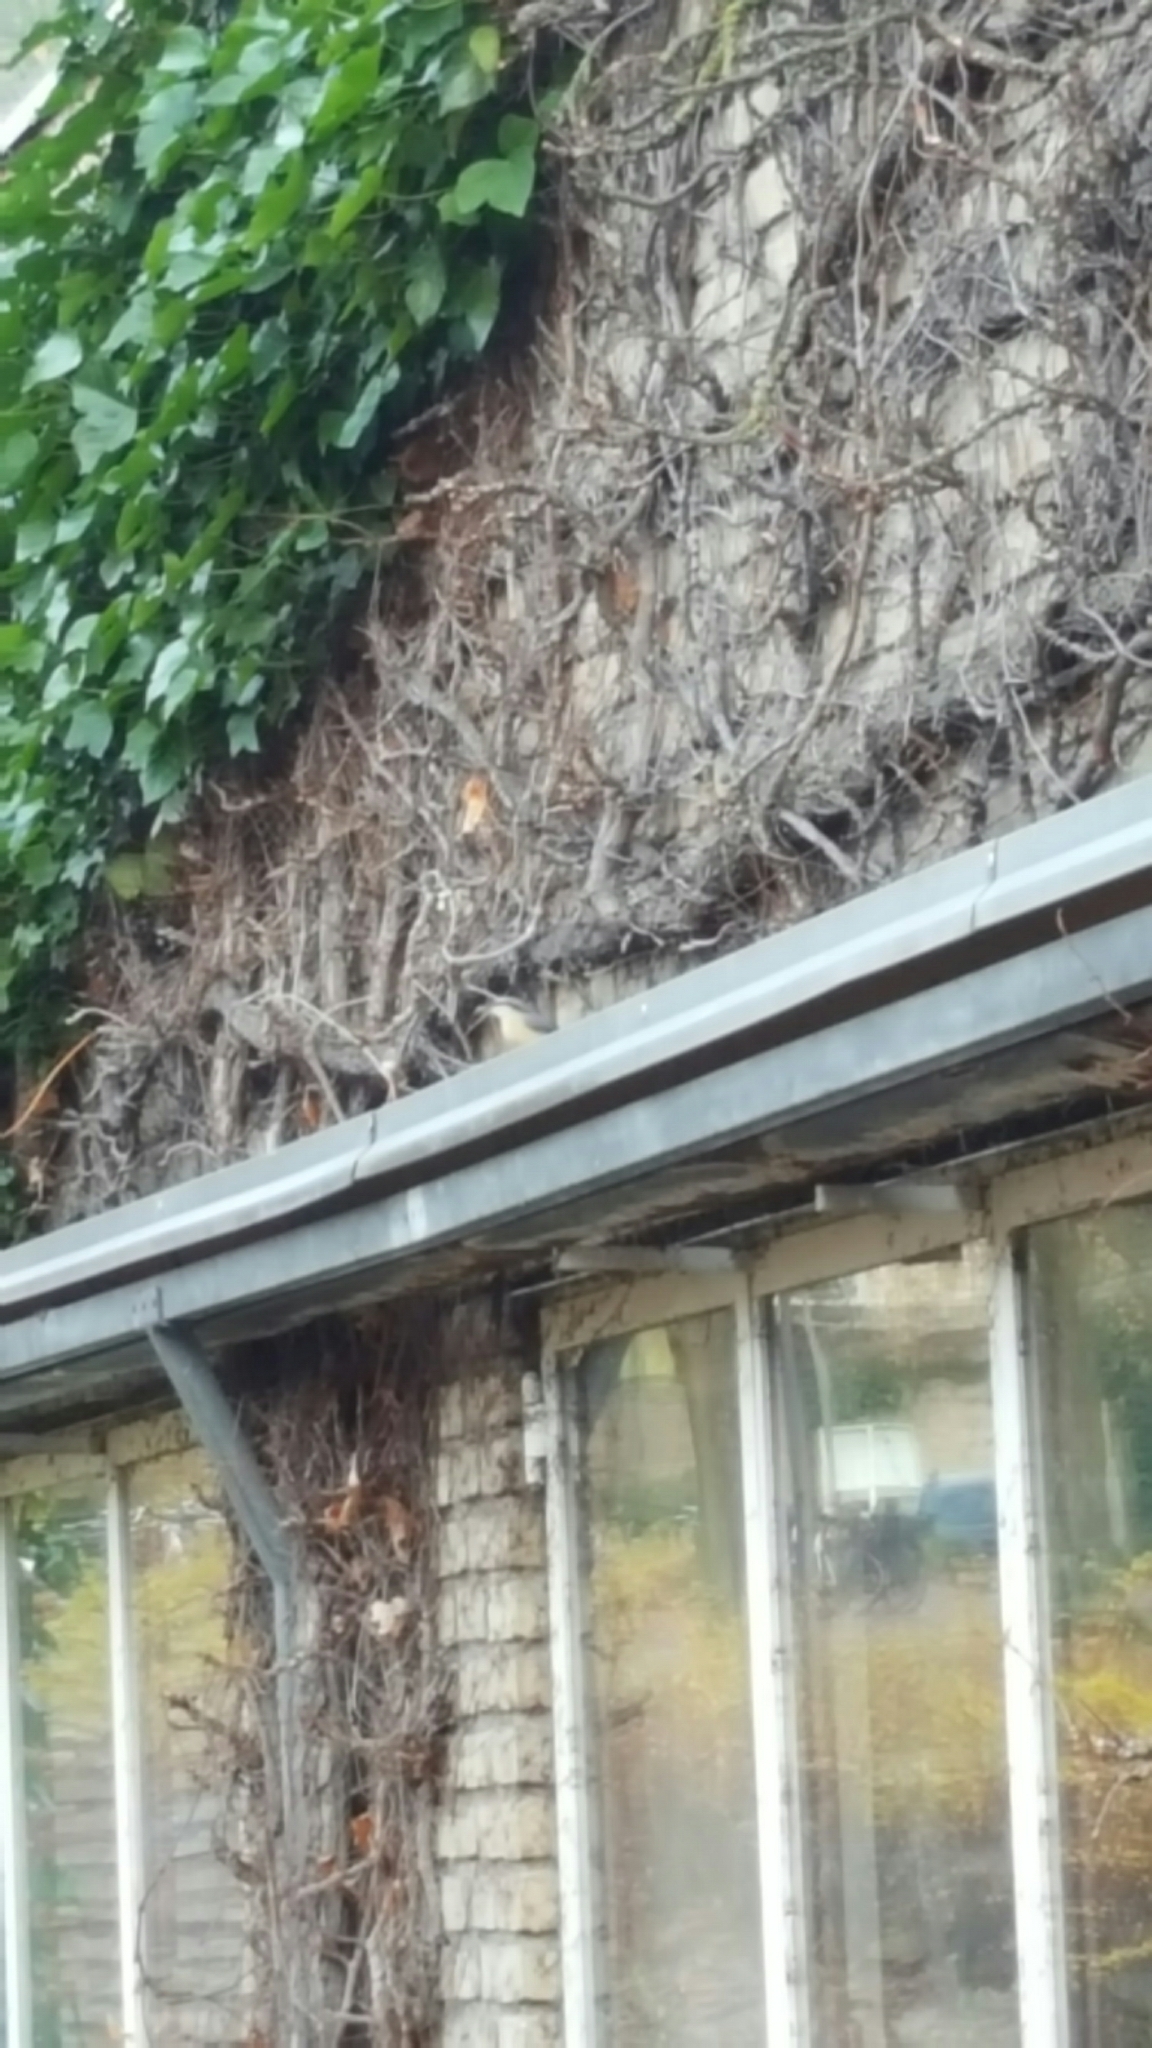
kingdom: Animalia
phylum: Chordata
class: Aves
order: Passeriformes
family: Sittidae
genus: Sitta
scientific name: Sitta europaea
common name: Eurasian nuthatch
